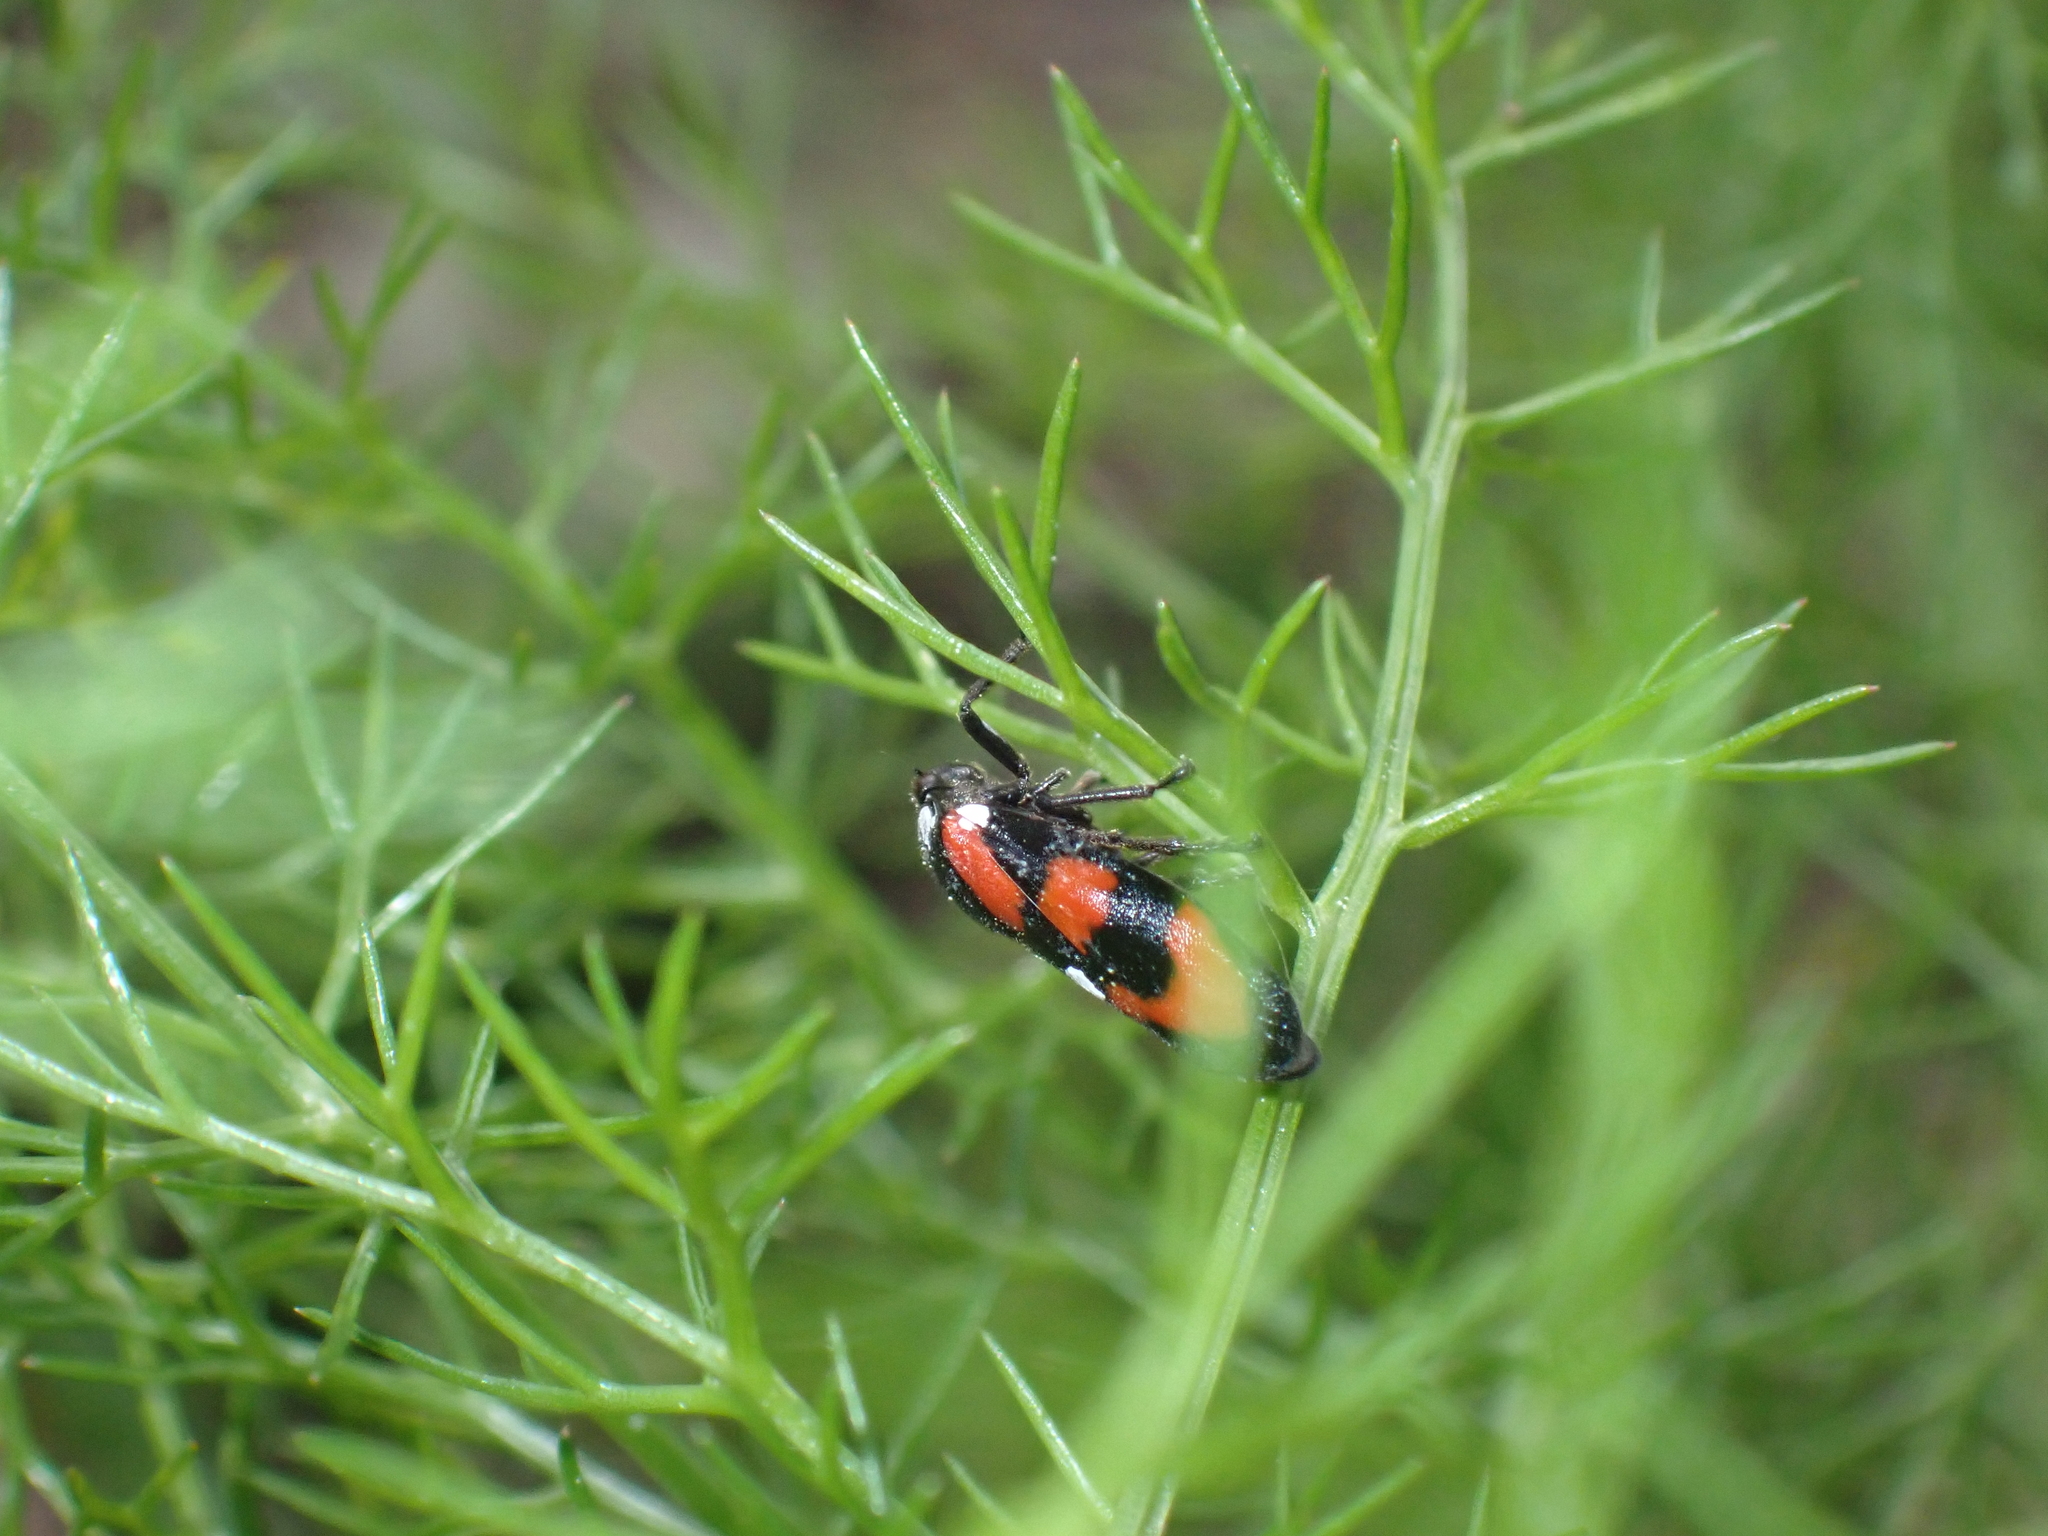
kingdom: Animalia
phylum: Arthropoda
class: Insecta
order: Hemiptera
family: Cercopidae
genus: Cercopis
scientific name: Cercopis vulnerata
